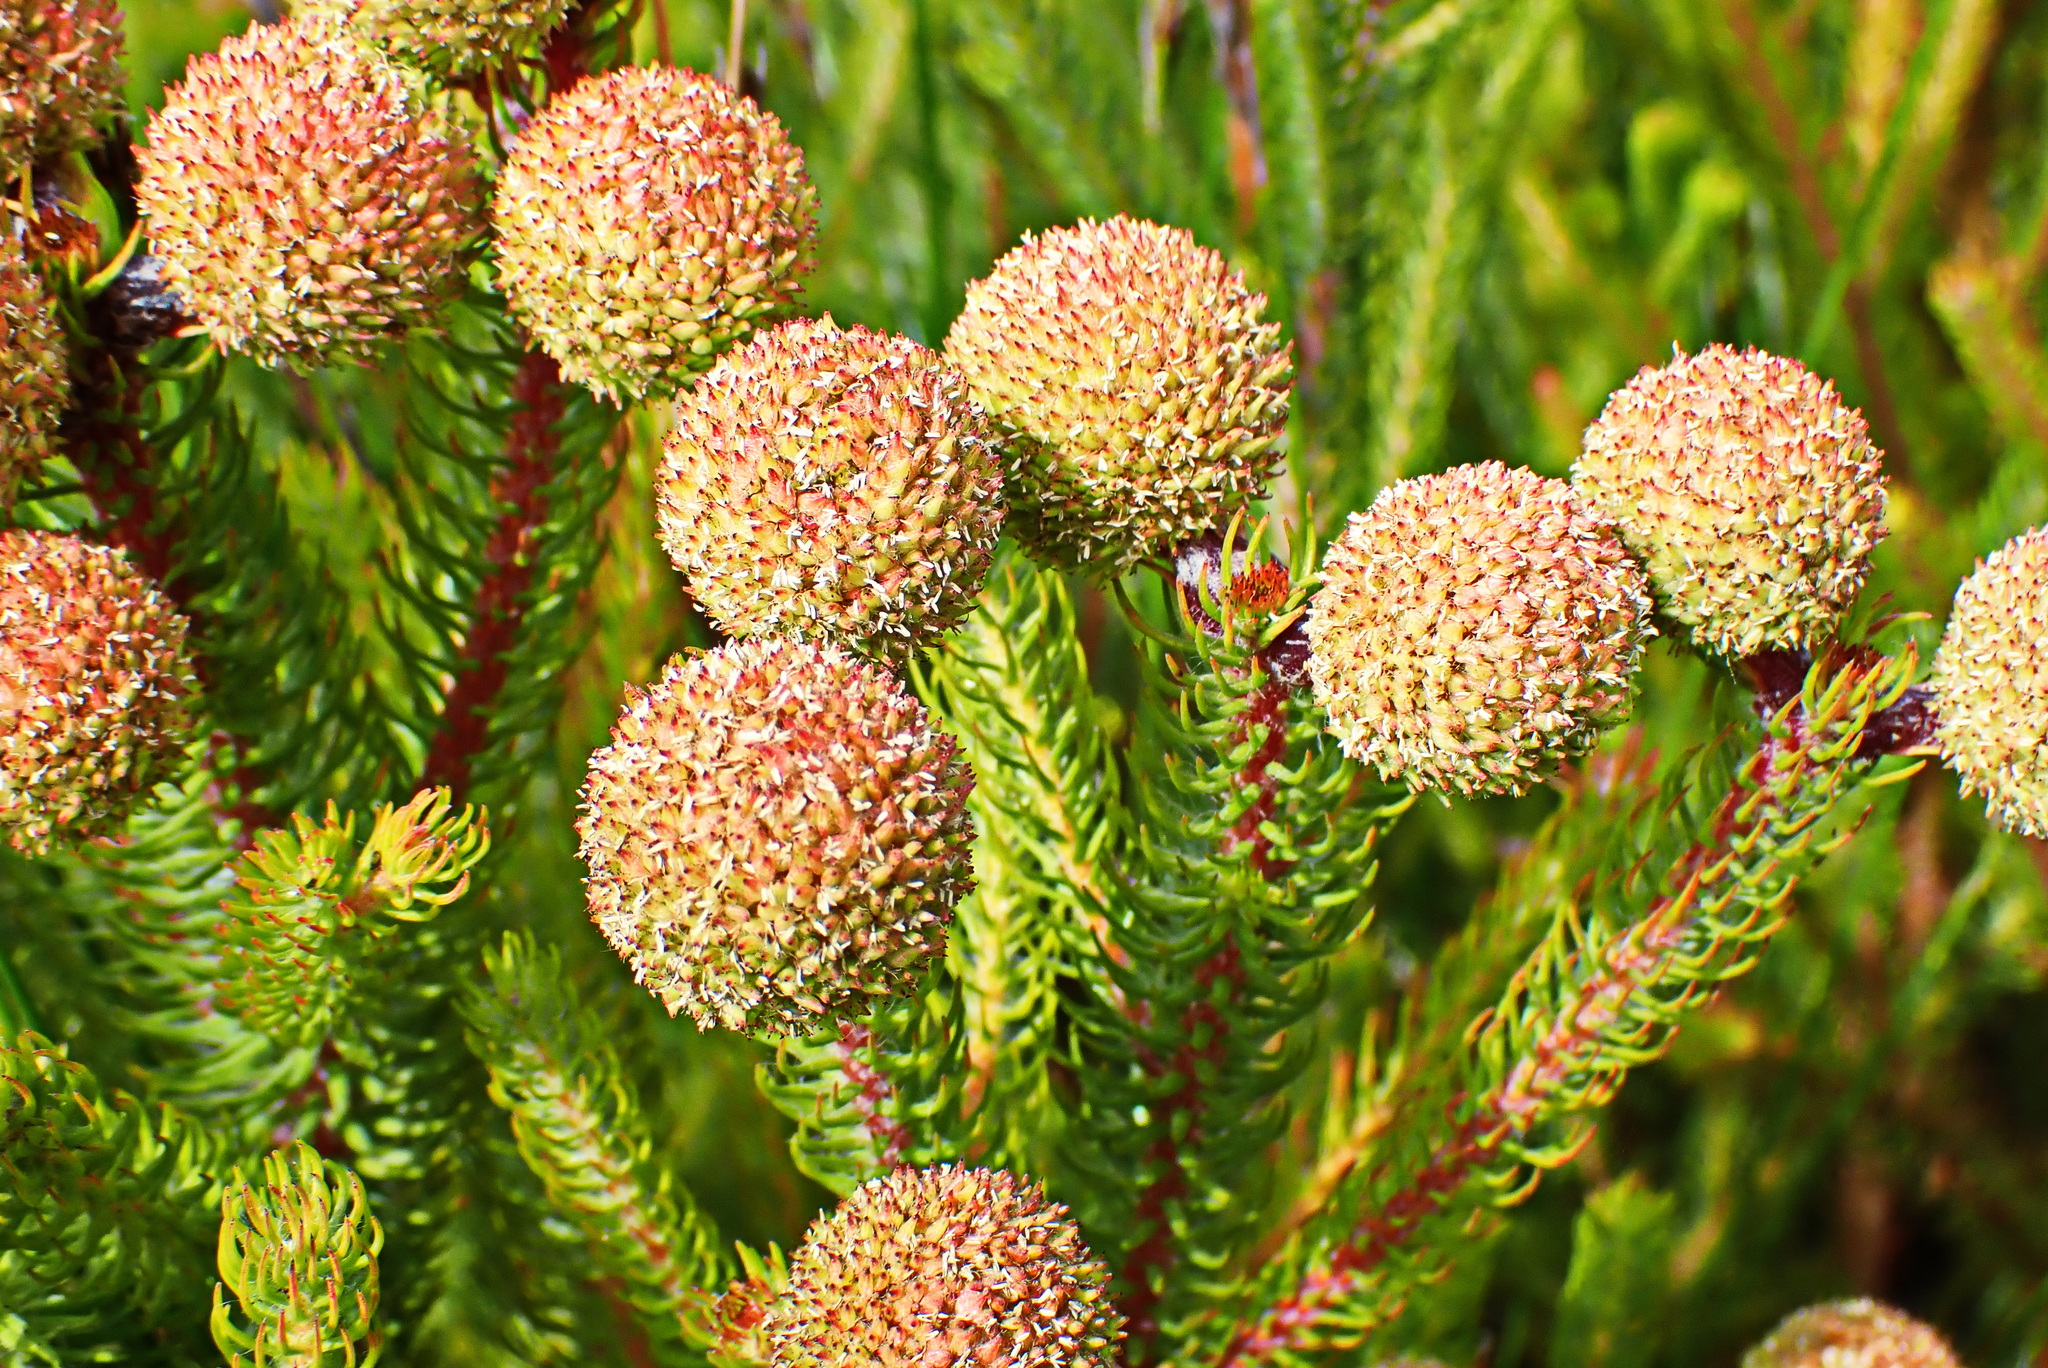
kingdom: Plantae
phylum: Tracheophyta
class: Magnoliopsida
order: Bruniales
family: Bruniaceae
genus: Berzelia
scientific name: Berzelia galpinii
